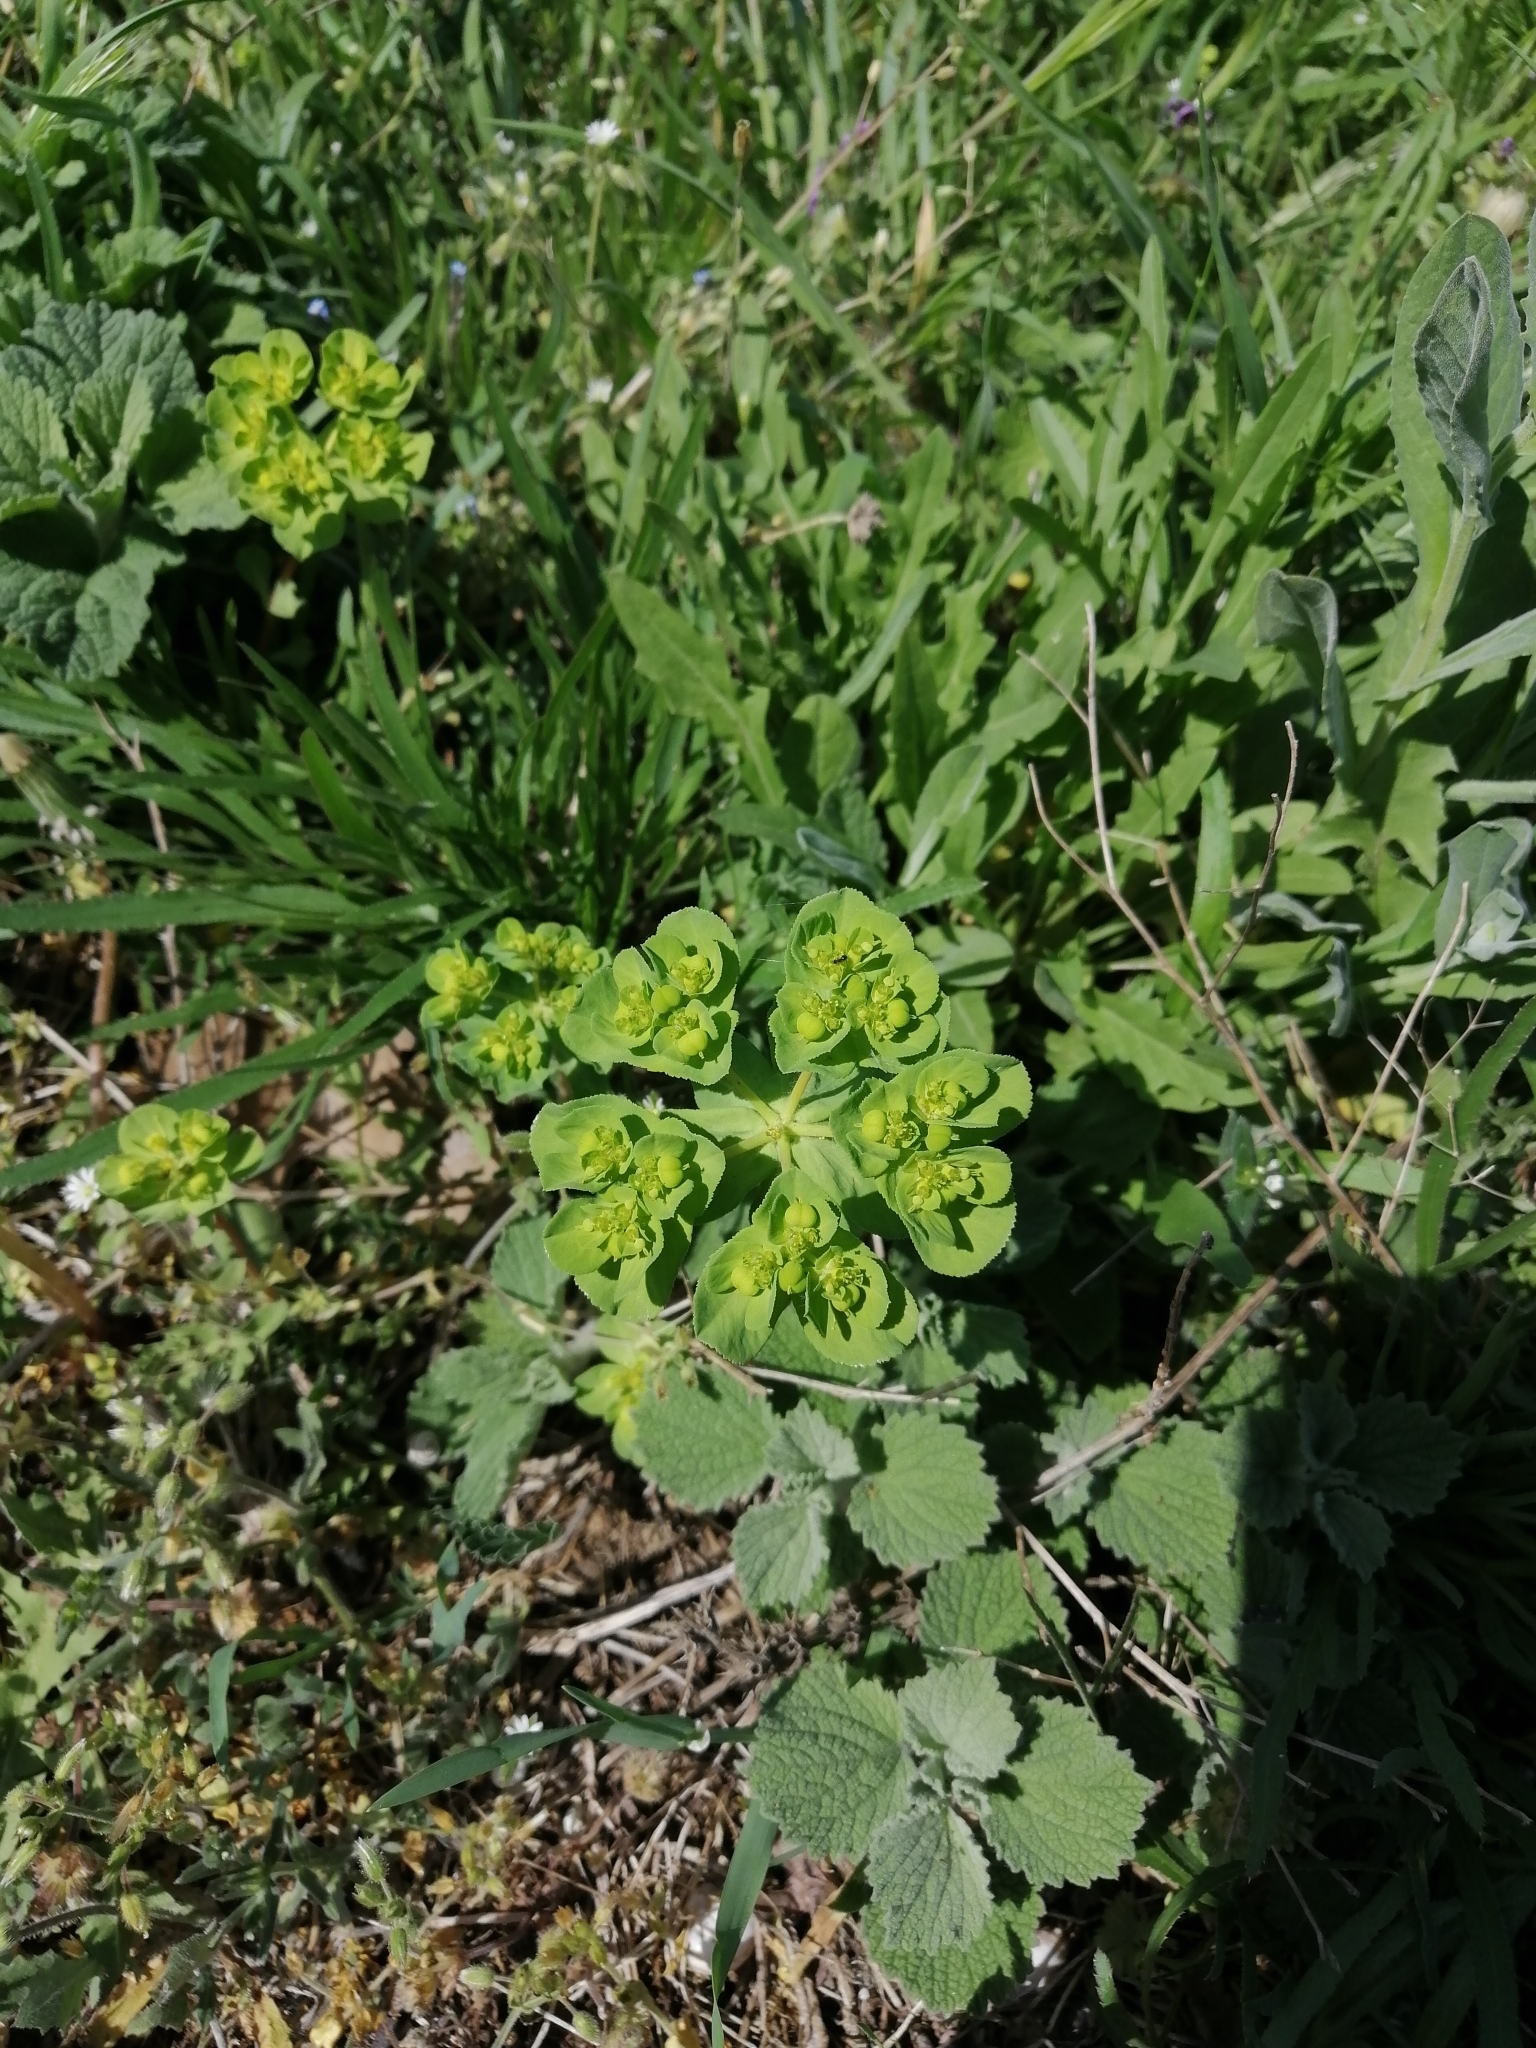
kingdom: Plantae
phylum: Tracheophyta
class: Magnoliopsida
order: Malpighiales
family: Euphorbiaceae
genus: Euphorbia
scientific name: Euphorbia helioscopia
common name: Sun spurge
